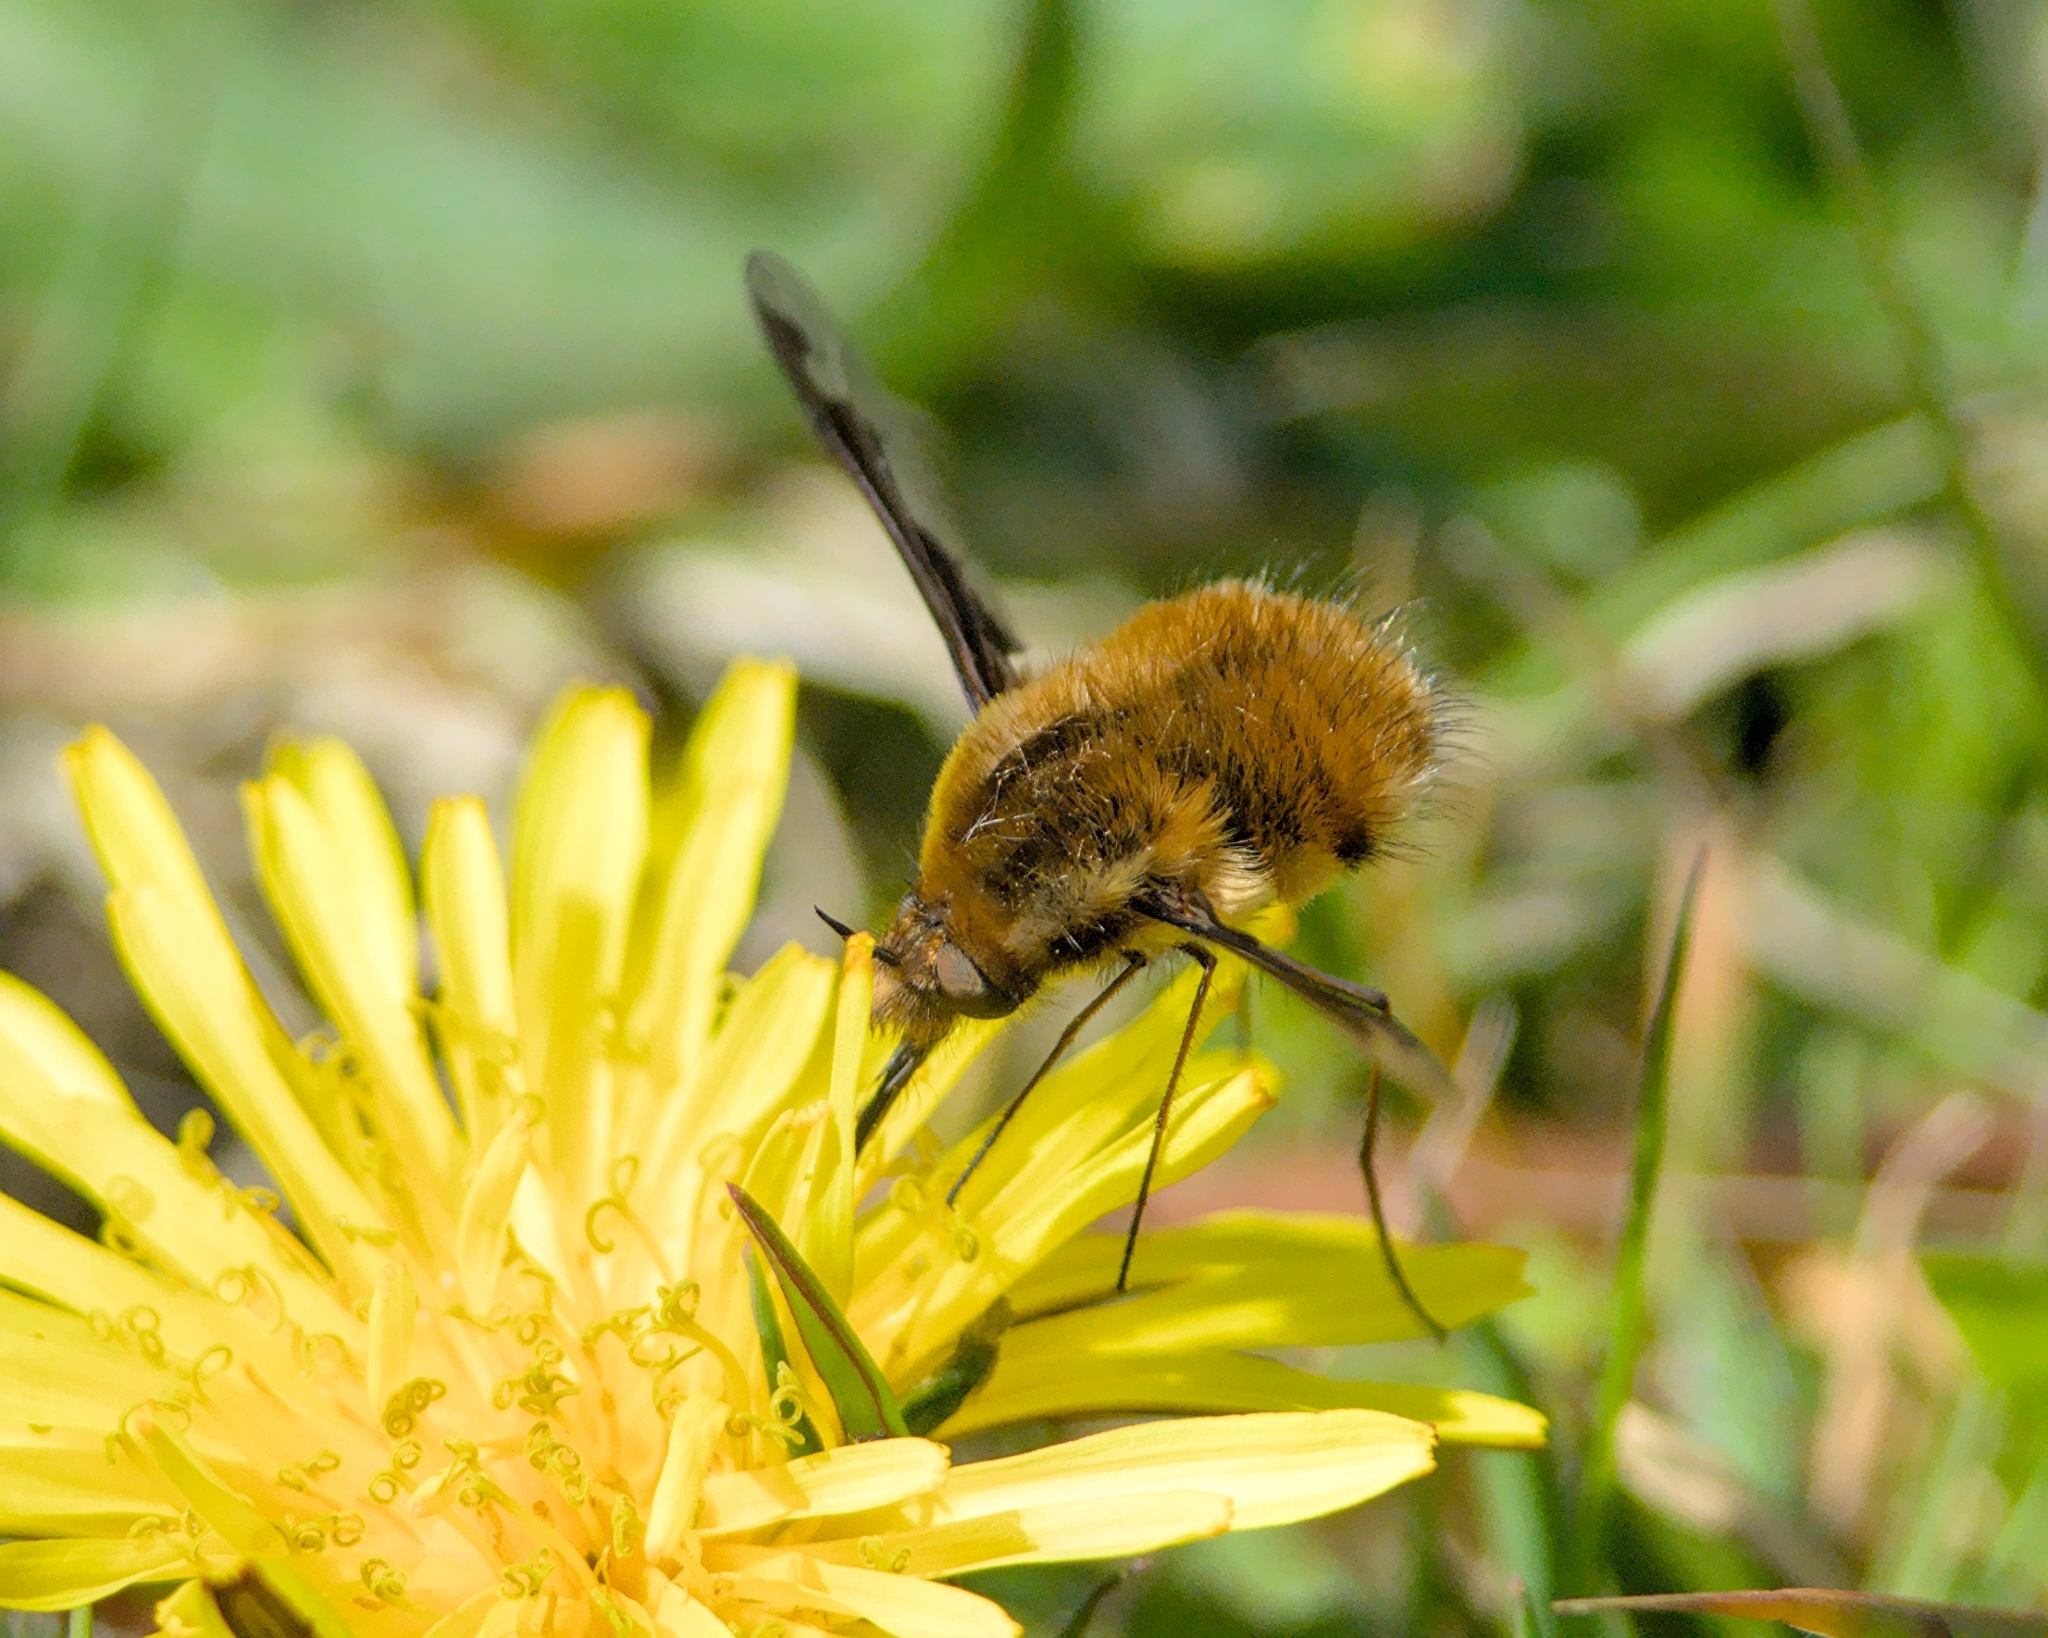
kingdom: Animalia
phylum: Arthropoda
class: Insecta
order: Diptera
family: Bombyliidae
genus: Bombylius
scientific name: Bombylius major
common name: Bee fly
